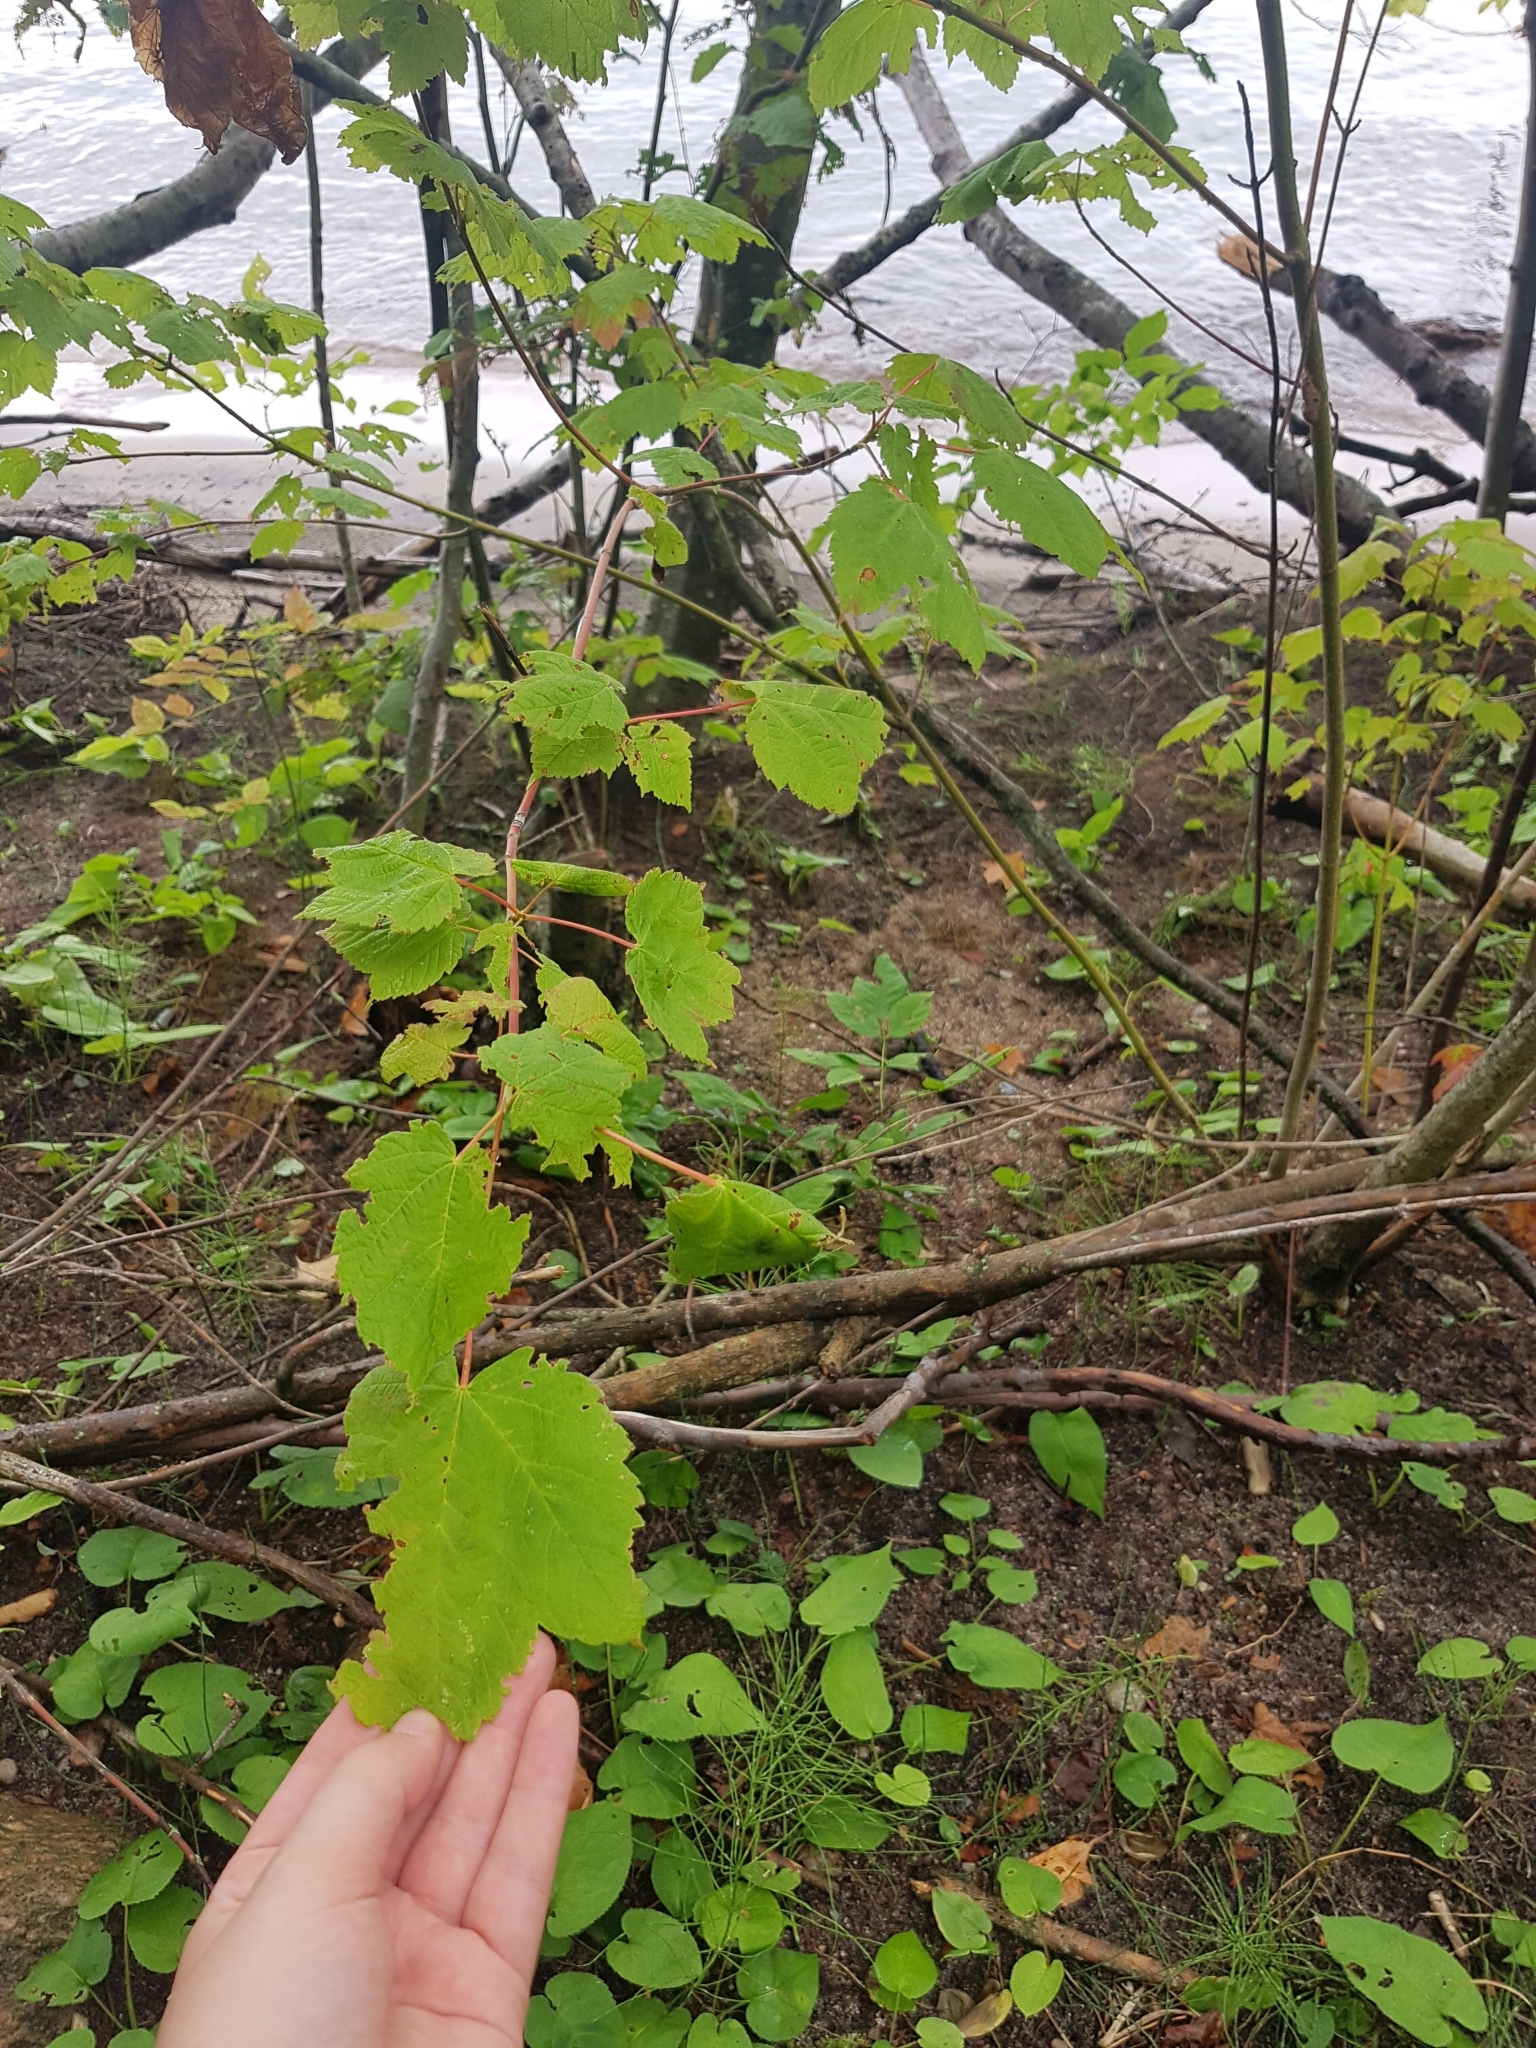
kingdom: Plantae
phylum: Tracheophyta
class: Magnoliopsida
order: Sapindales
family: Sapindaceae
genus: Acer
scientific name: Acer spicatum
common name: Mountain maple
